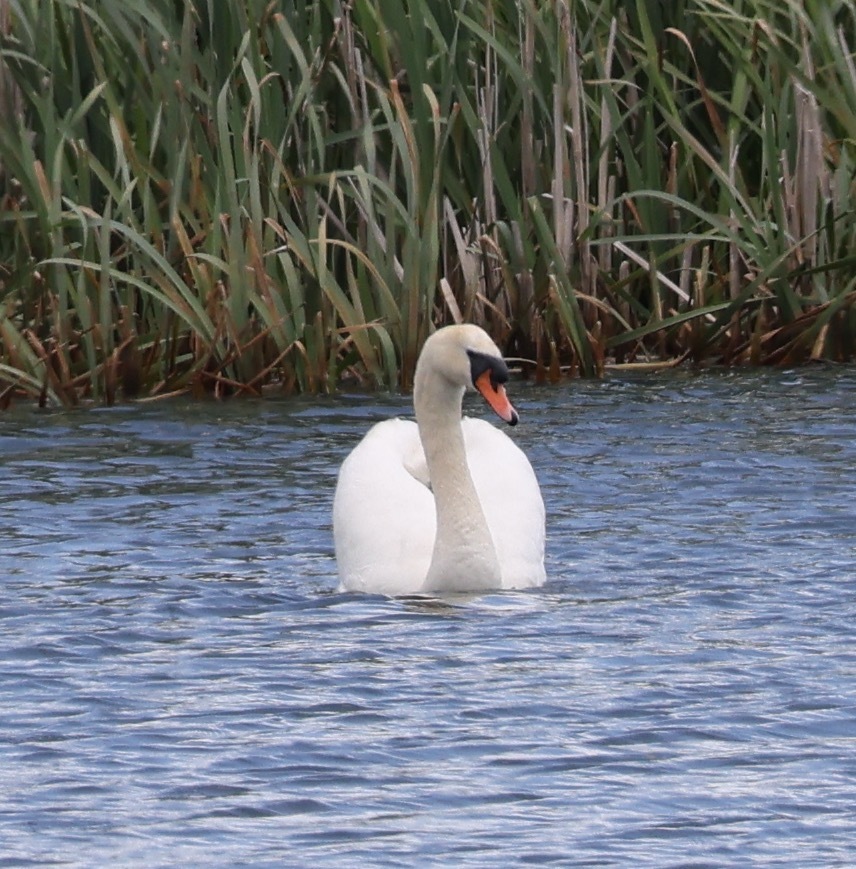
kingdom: Animalia
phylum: Chordata
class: Aves
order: Anseriformes
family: Anatidae
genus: Cygnus
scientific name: Cygnus olor
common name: Mute swan
